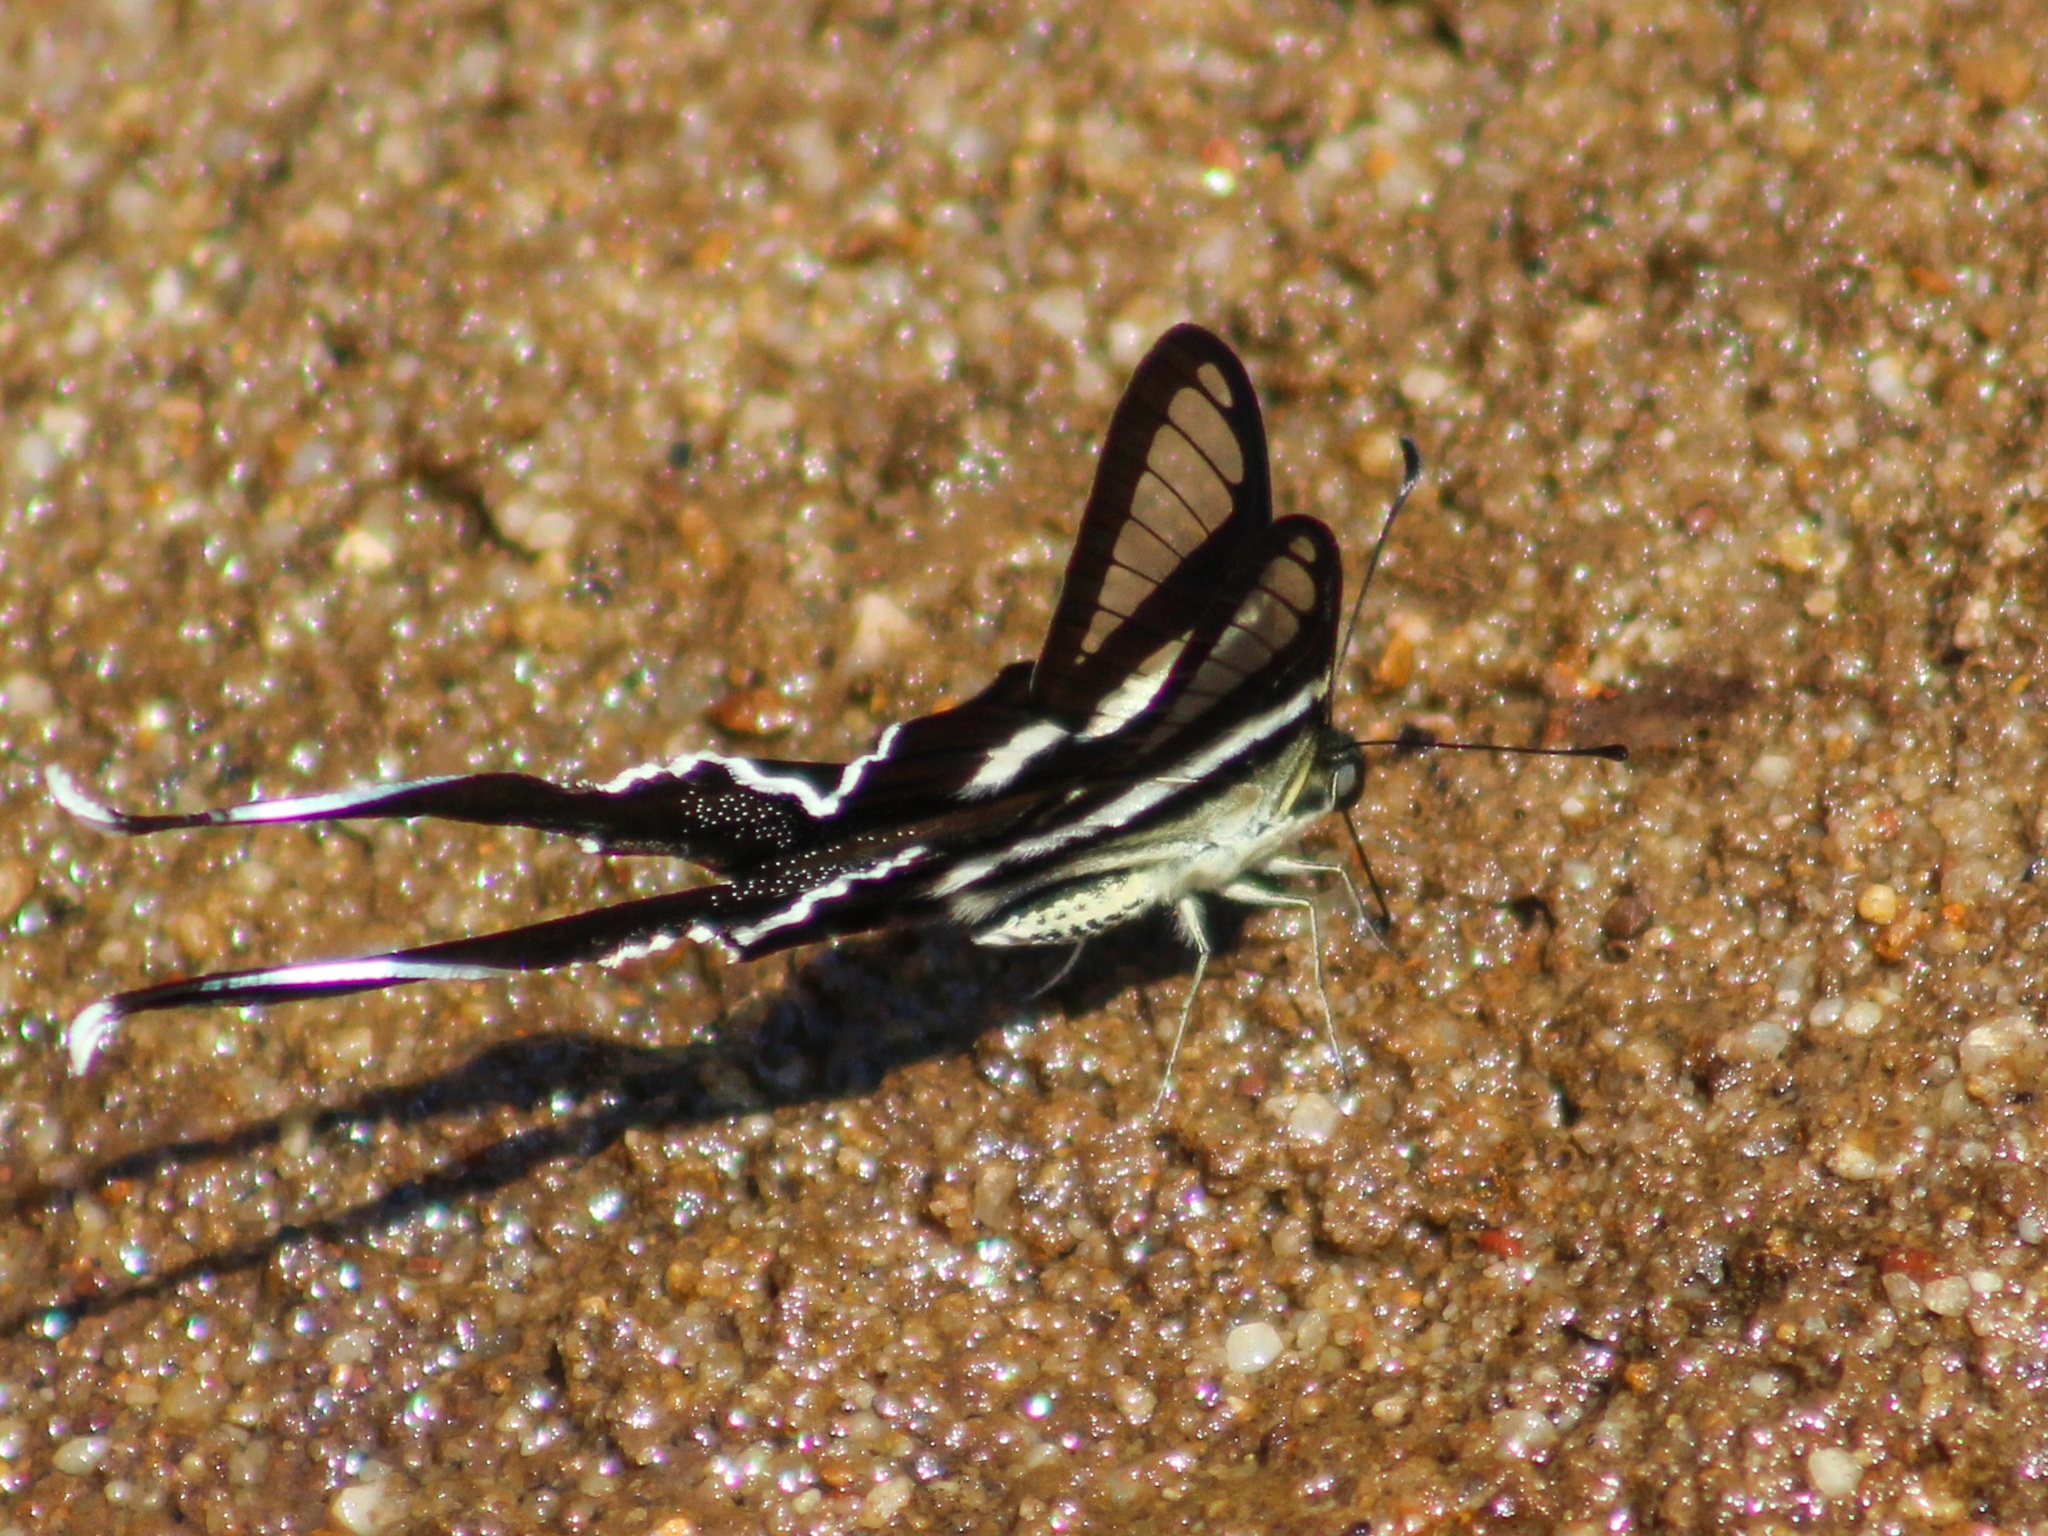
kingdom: Animalia
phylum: Arthropoda
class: Insecta
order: Lepidoptera
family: Papilionidae
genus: Lamproptera
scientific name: Lamproptera curius
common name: White dragontail
